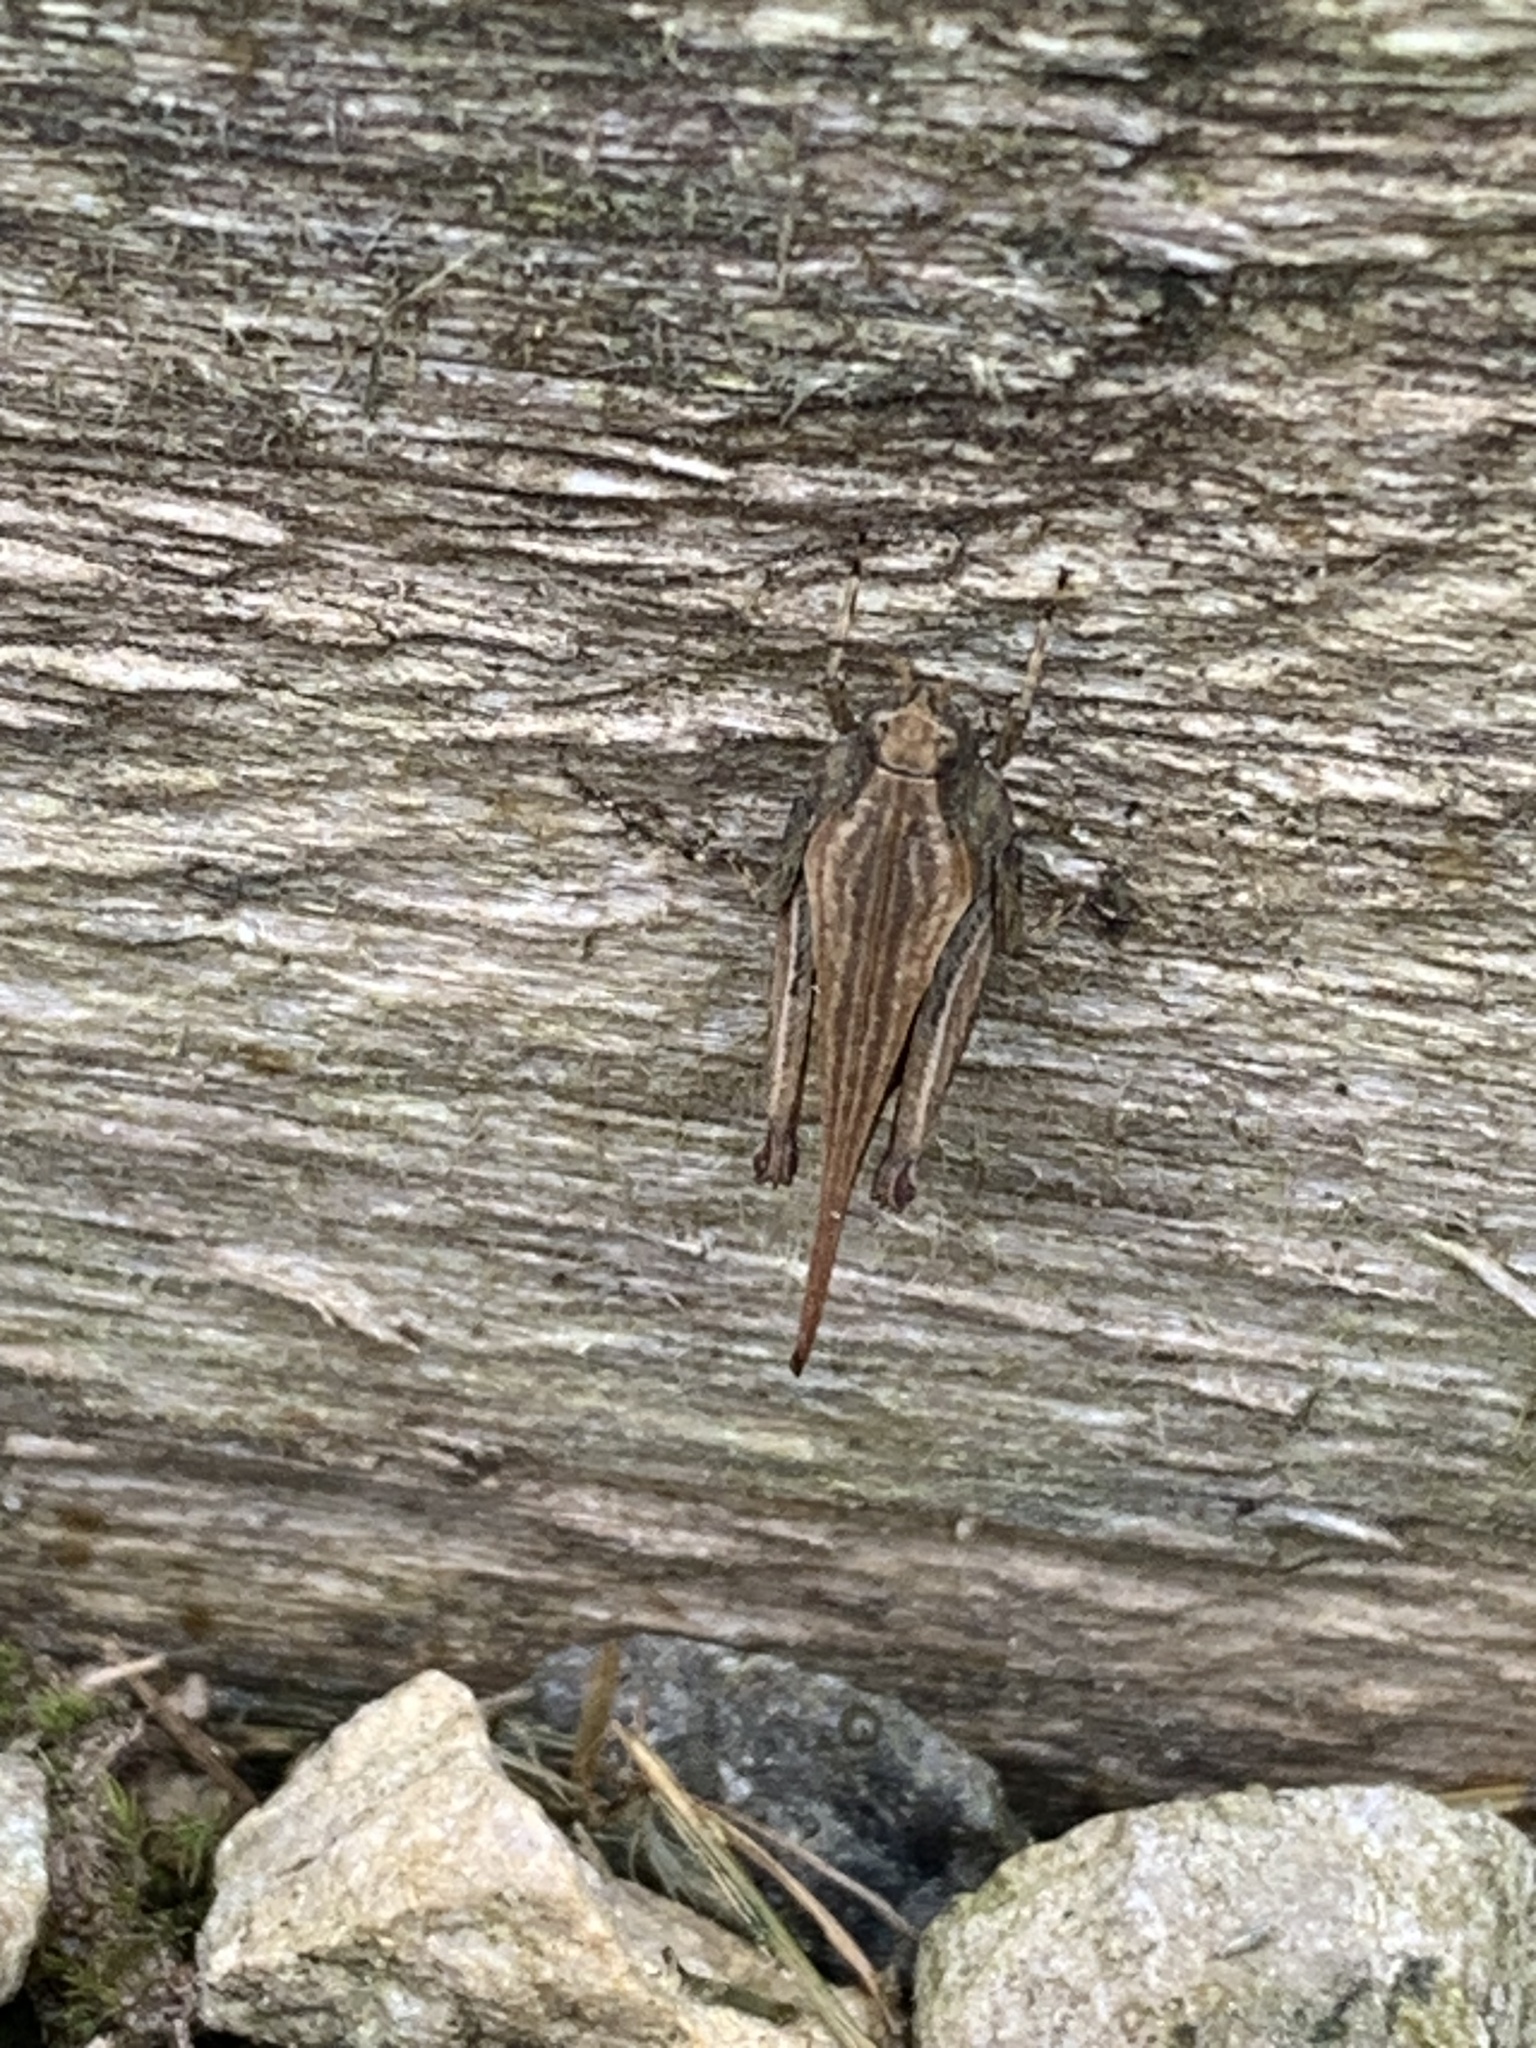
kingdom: Animalia
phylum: Arthropoda
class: Insecta
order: Orthoptera
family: Tetrigidae
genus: Tetrix
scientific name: Tetrix subulata
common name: Slender ground-hopper
